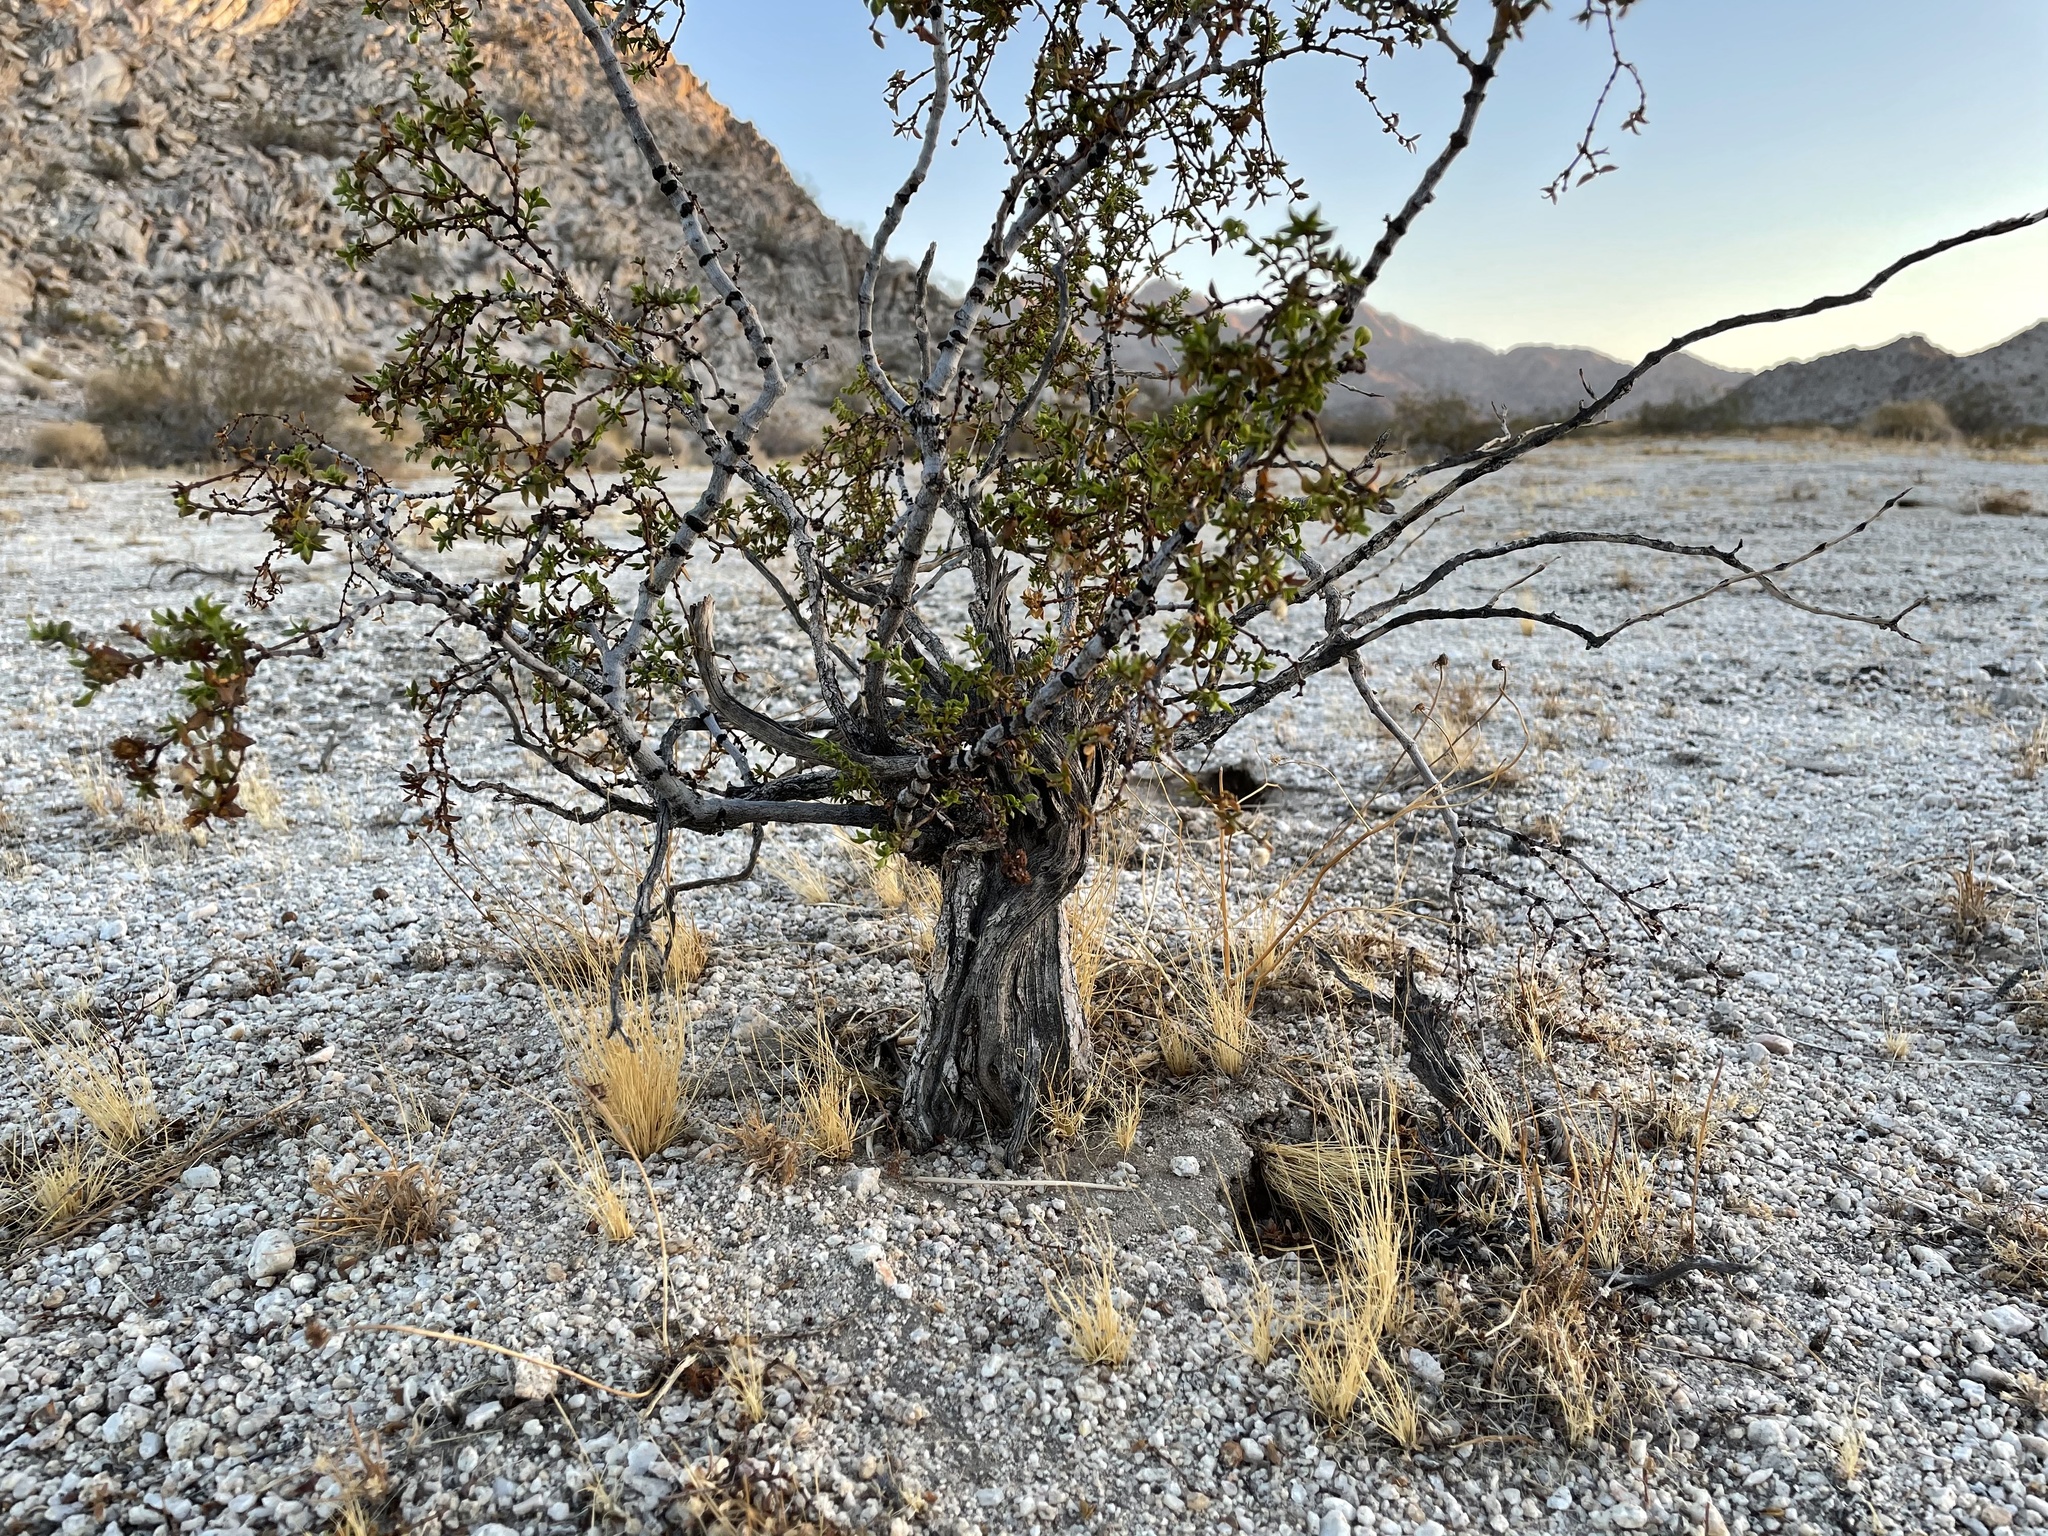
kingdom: Plantae
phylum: Tracheophyta
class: Magnoliopsida
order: Zygophyllales
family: Zygophyllaceae
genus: Larrea
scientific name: Larrea tridentata
